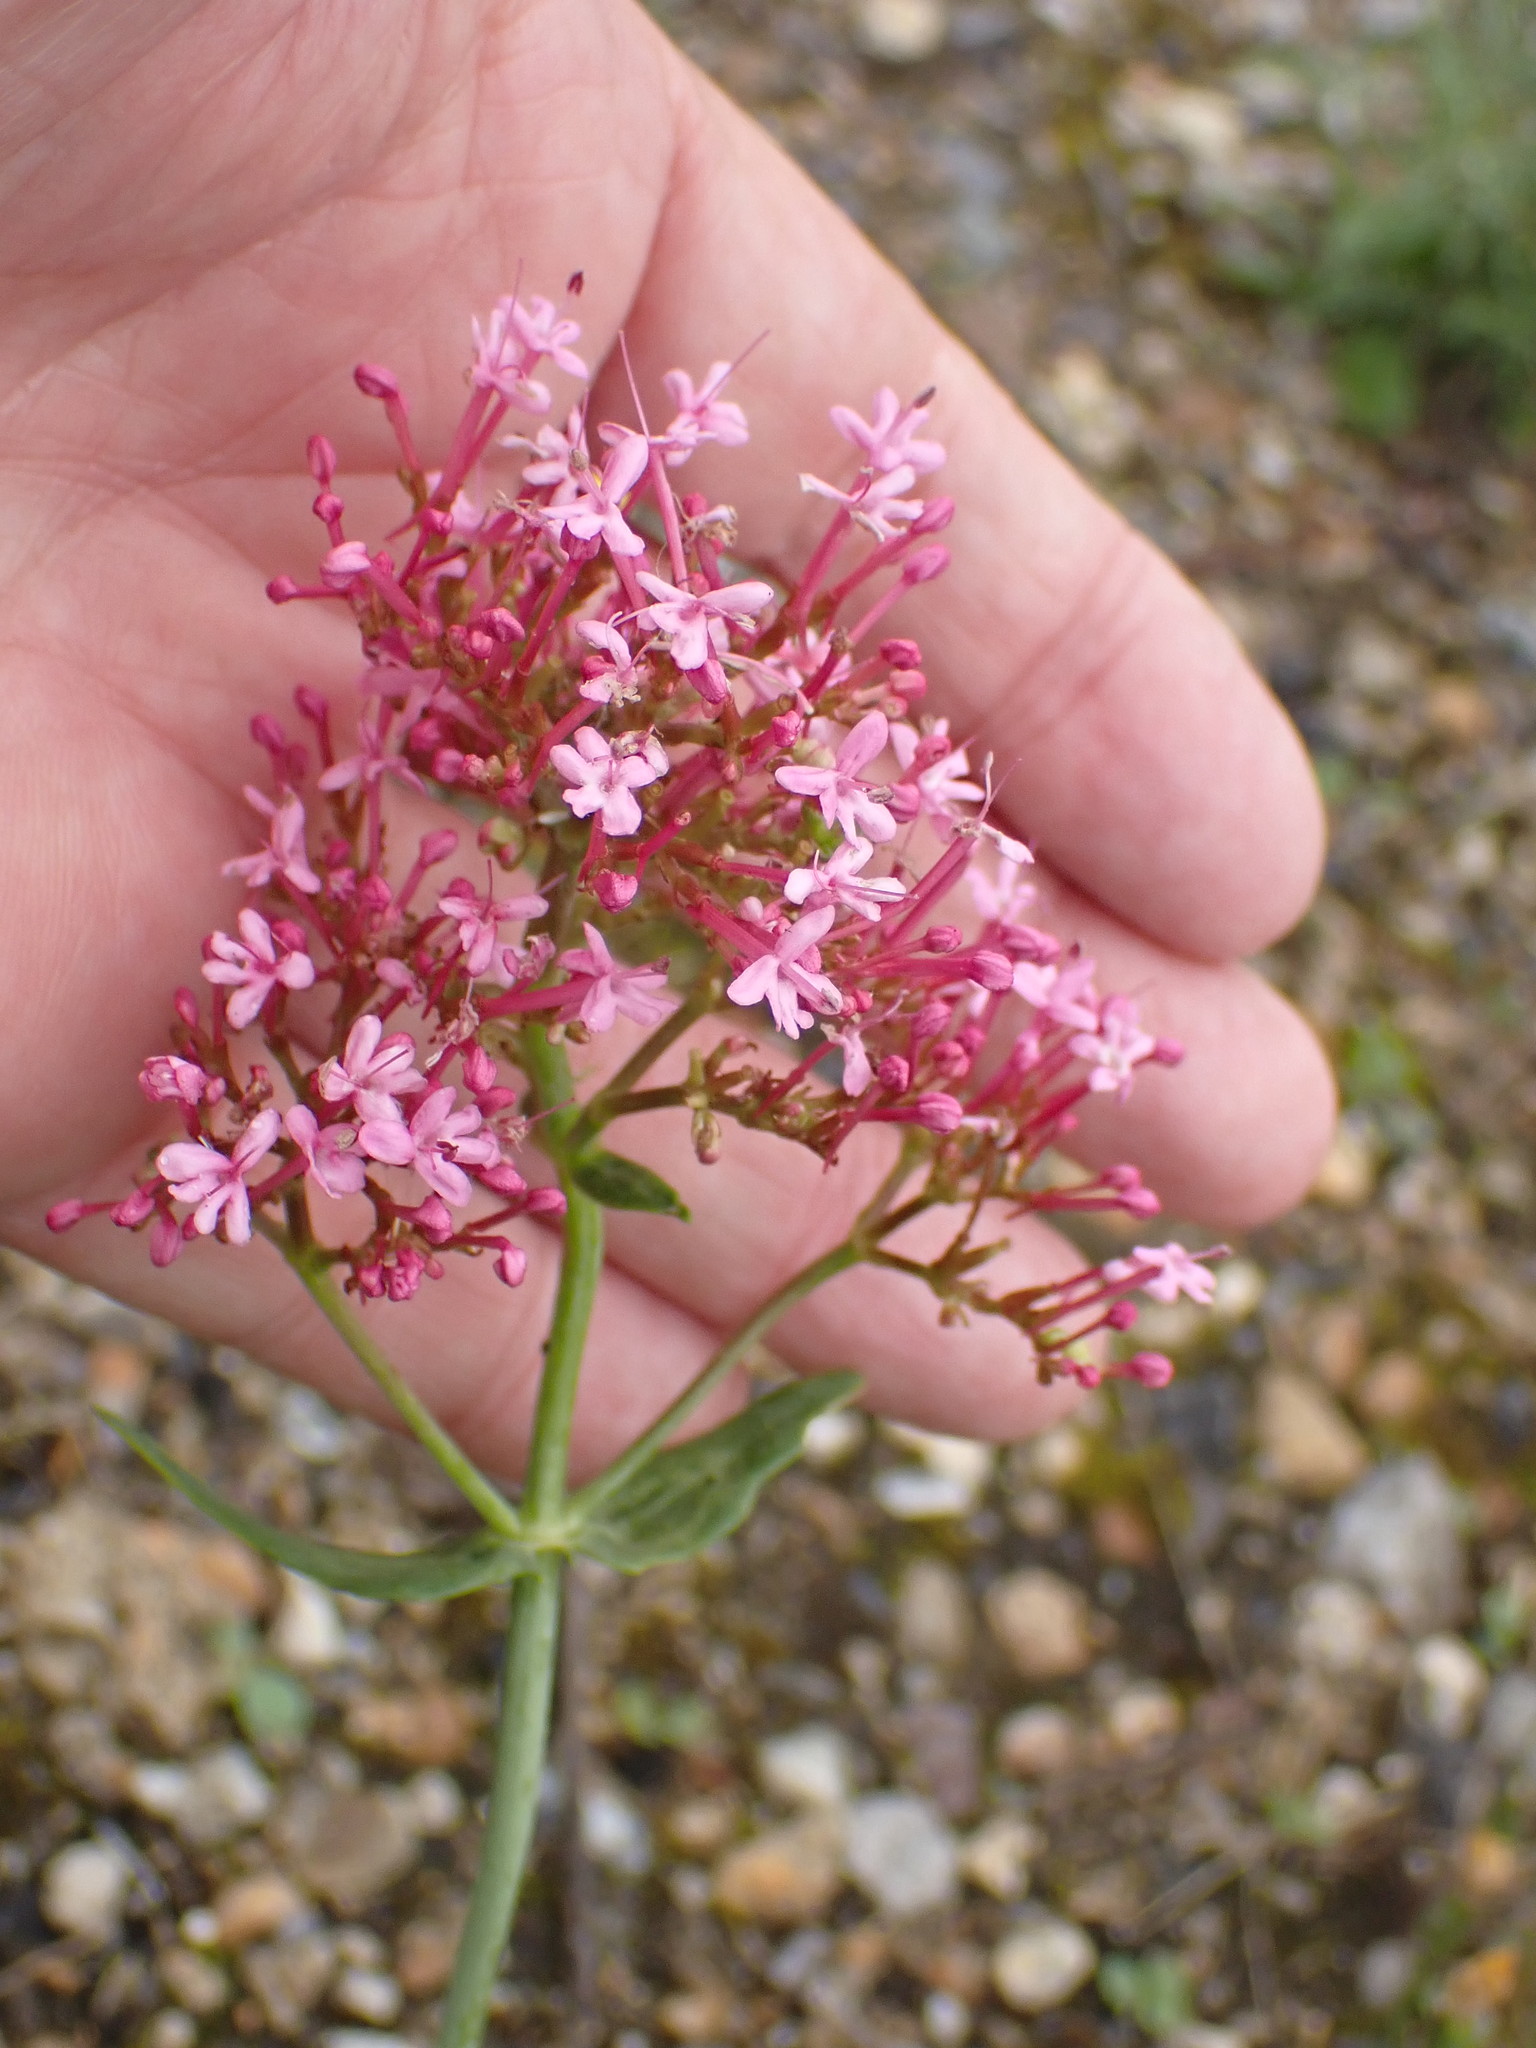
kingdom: Plantae
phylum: Tracheophyta
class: Magnoliopsida
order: Dipsacales
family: Caprifoliaceae
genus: Centranthus
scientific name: Centranthus ruber
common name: Red valerian
